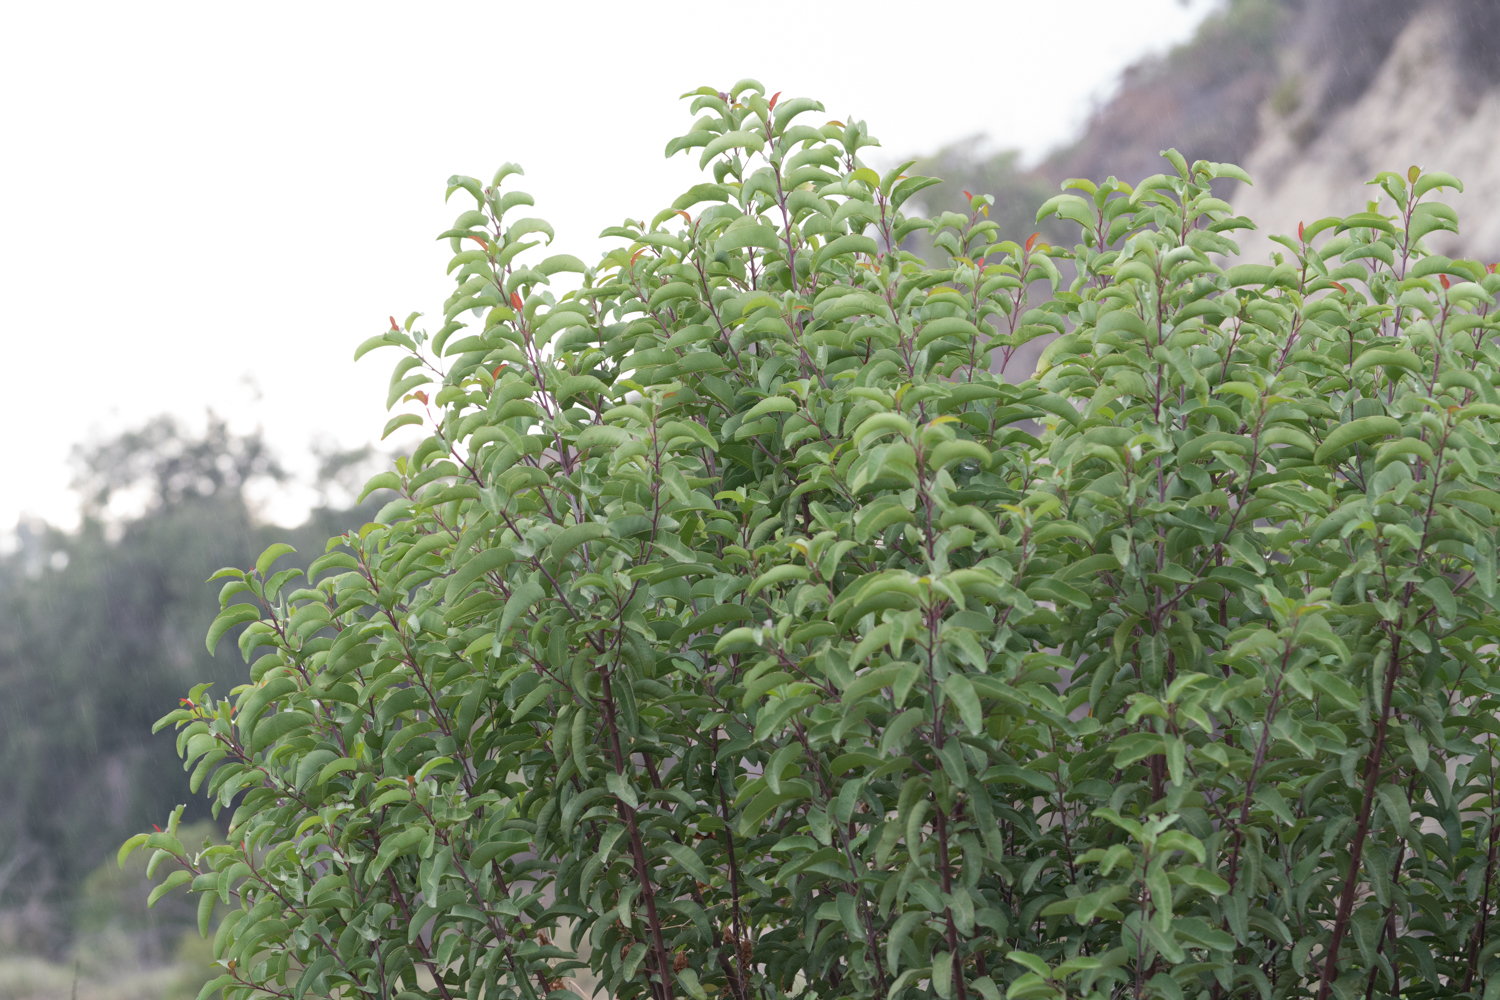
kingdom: Plantae
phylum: Tracheophyta
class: Magnoliopsida
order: Sapindales
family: Anacardiaceae
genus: Malosma
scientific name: Malosma laurina
